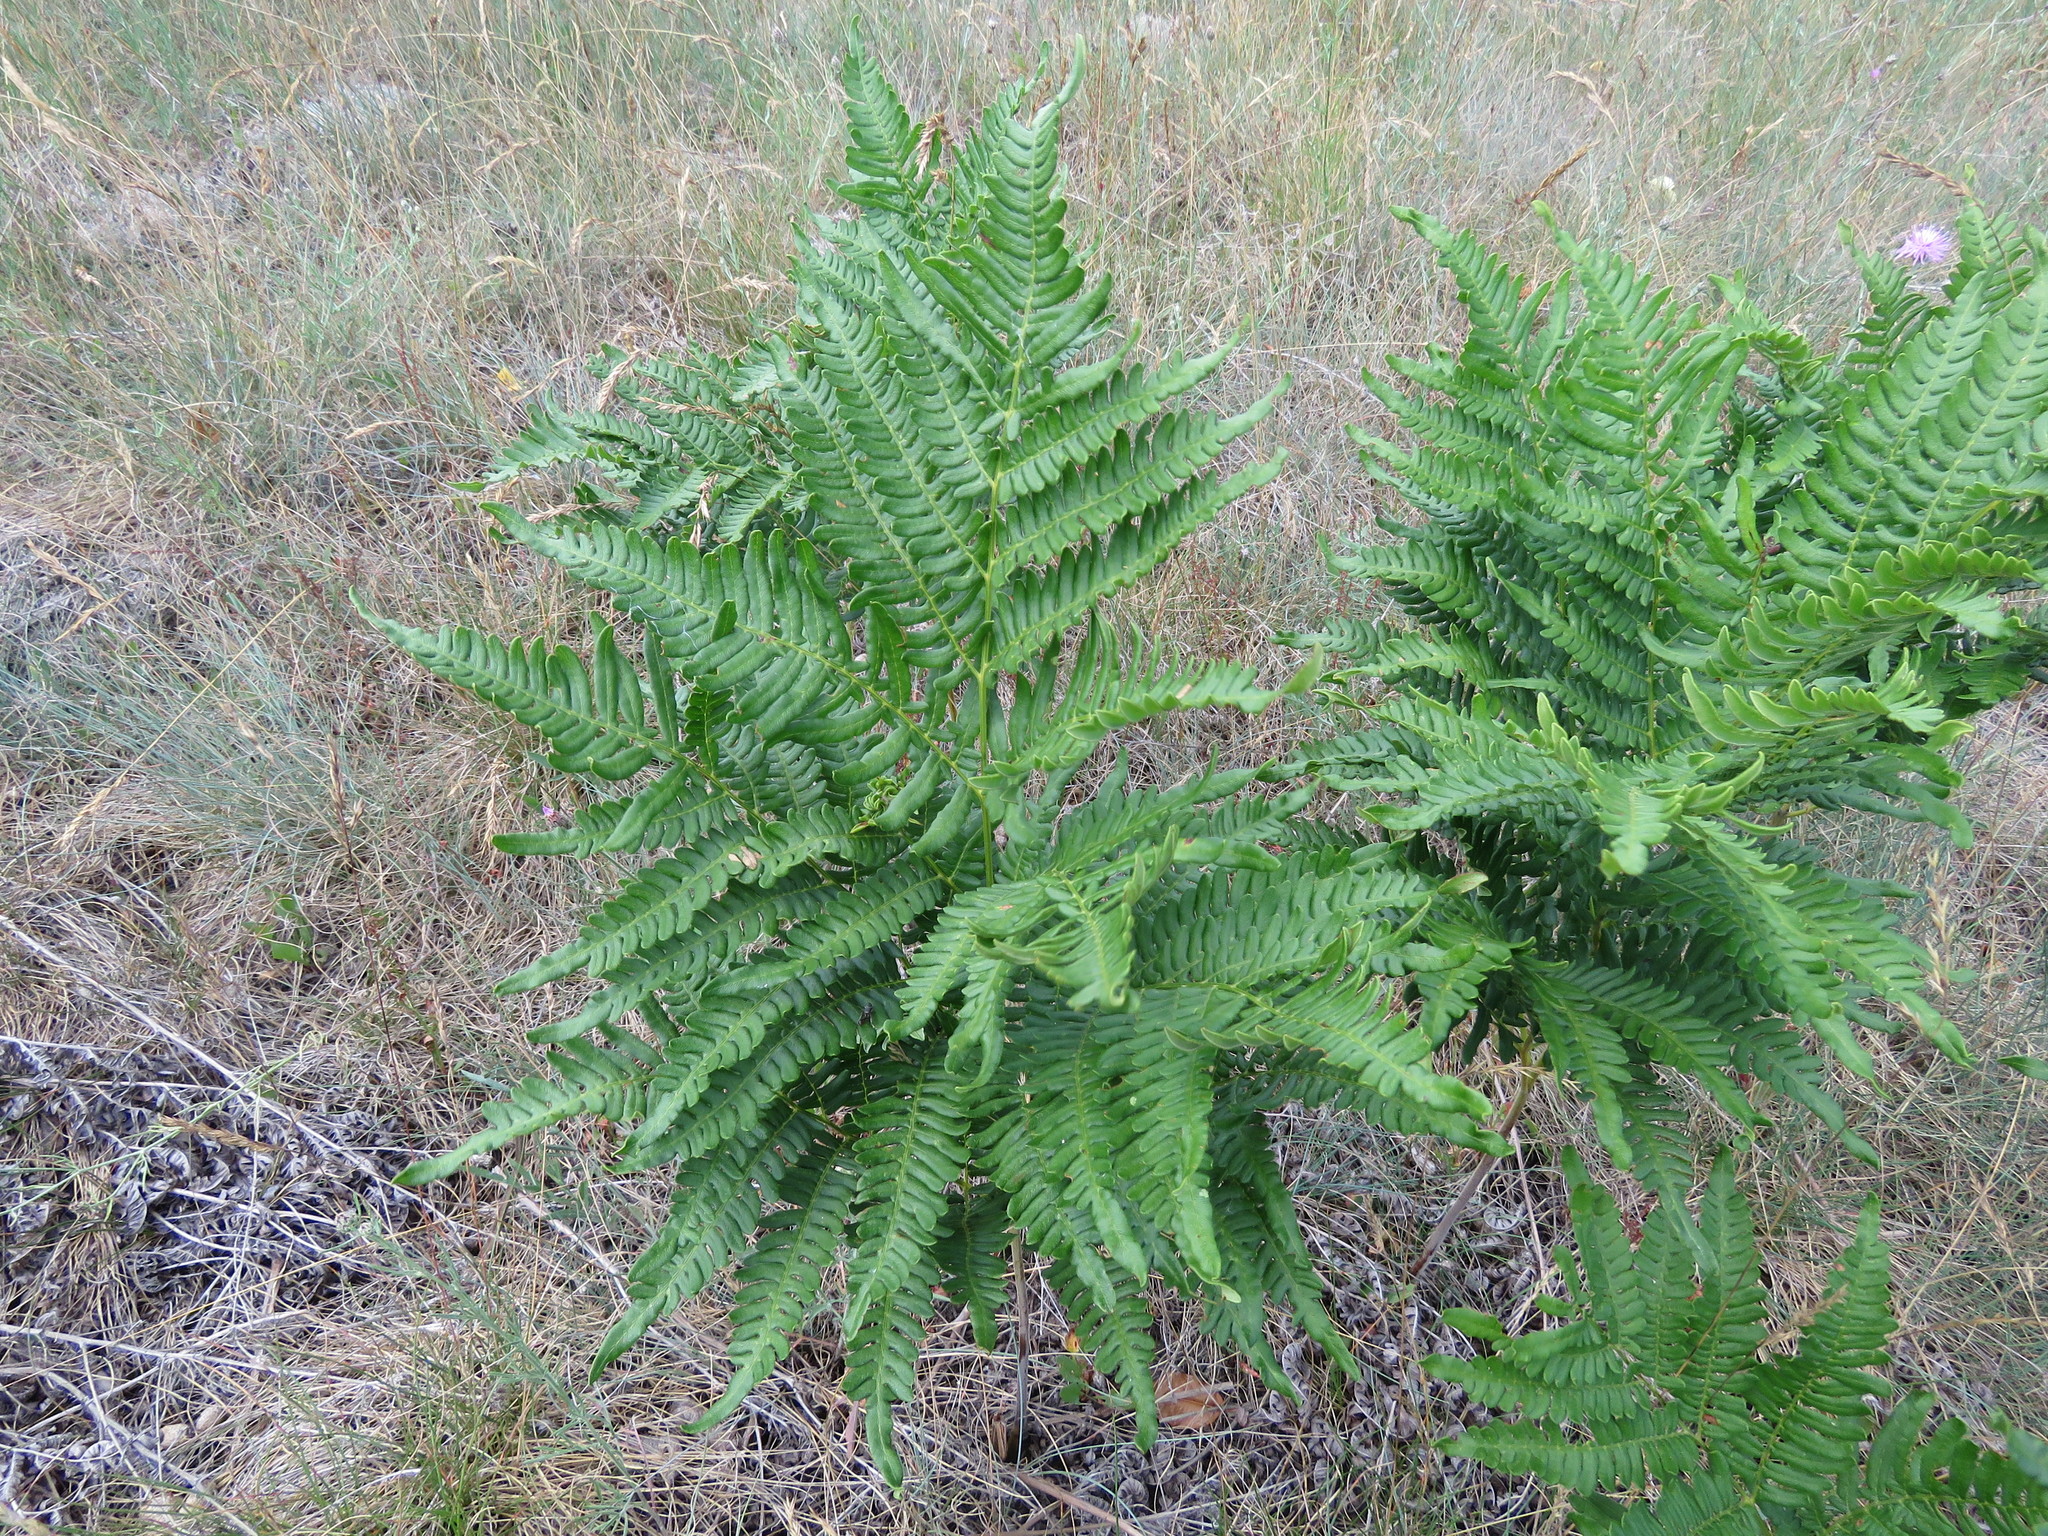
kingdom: Plantae
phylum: Tracheophyta
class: Polypodiopsida
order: Polypodiales
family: Dennstaedtiaceae
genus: Pteridium
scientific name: Pteridium aquilinum
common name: Bracken
